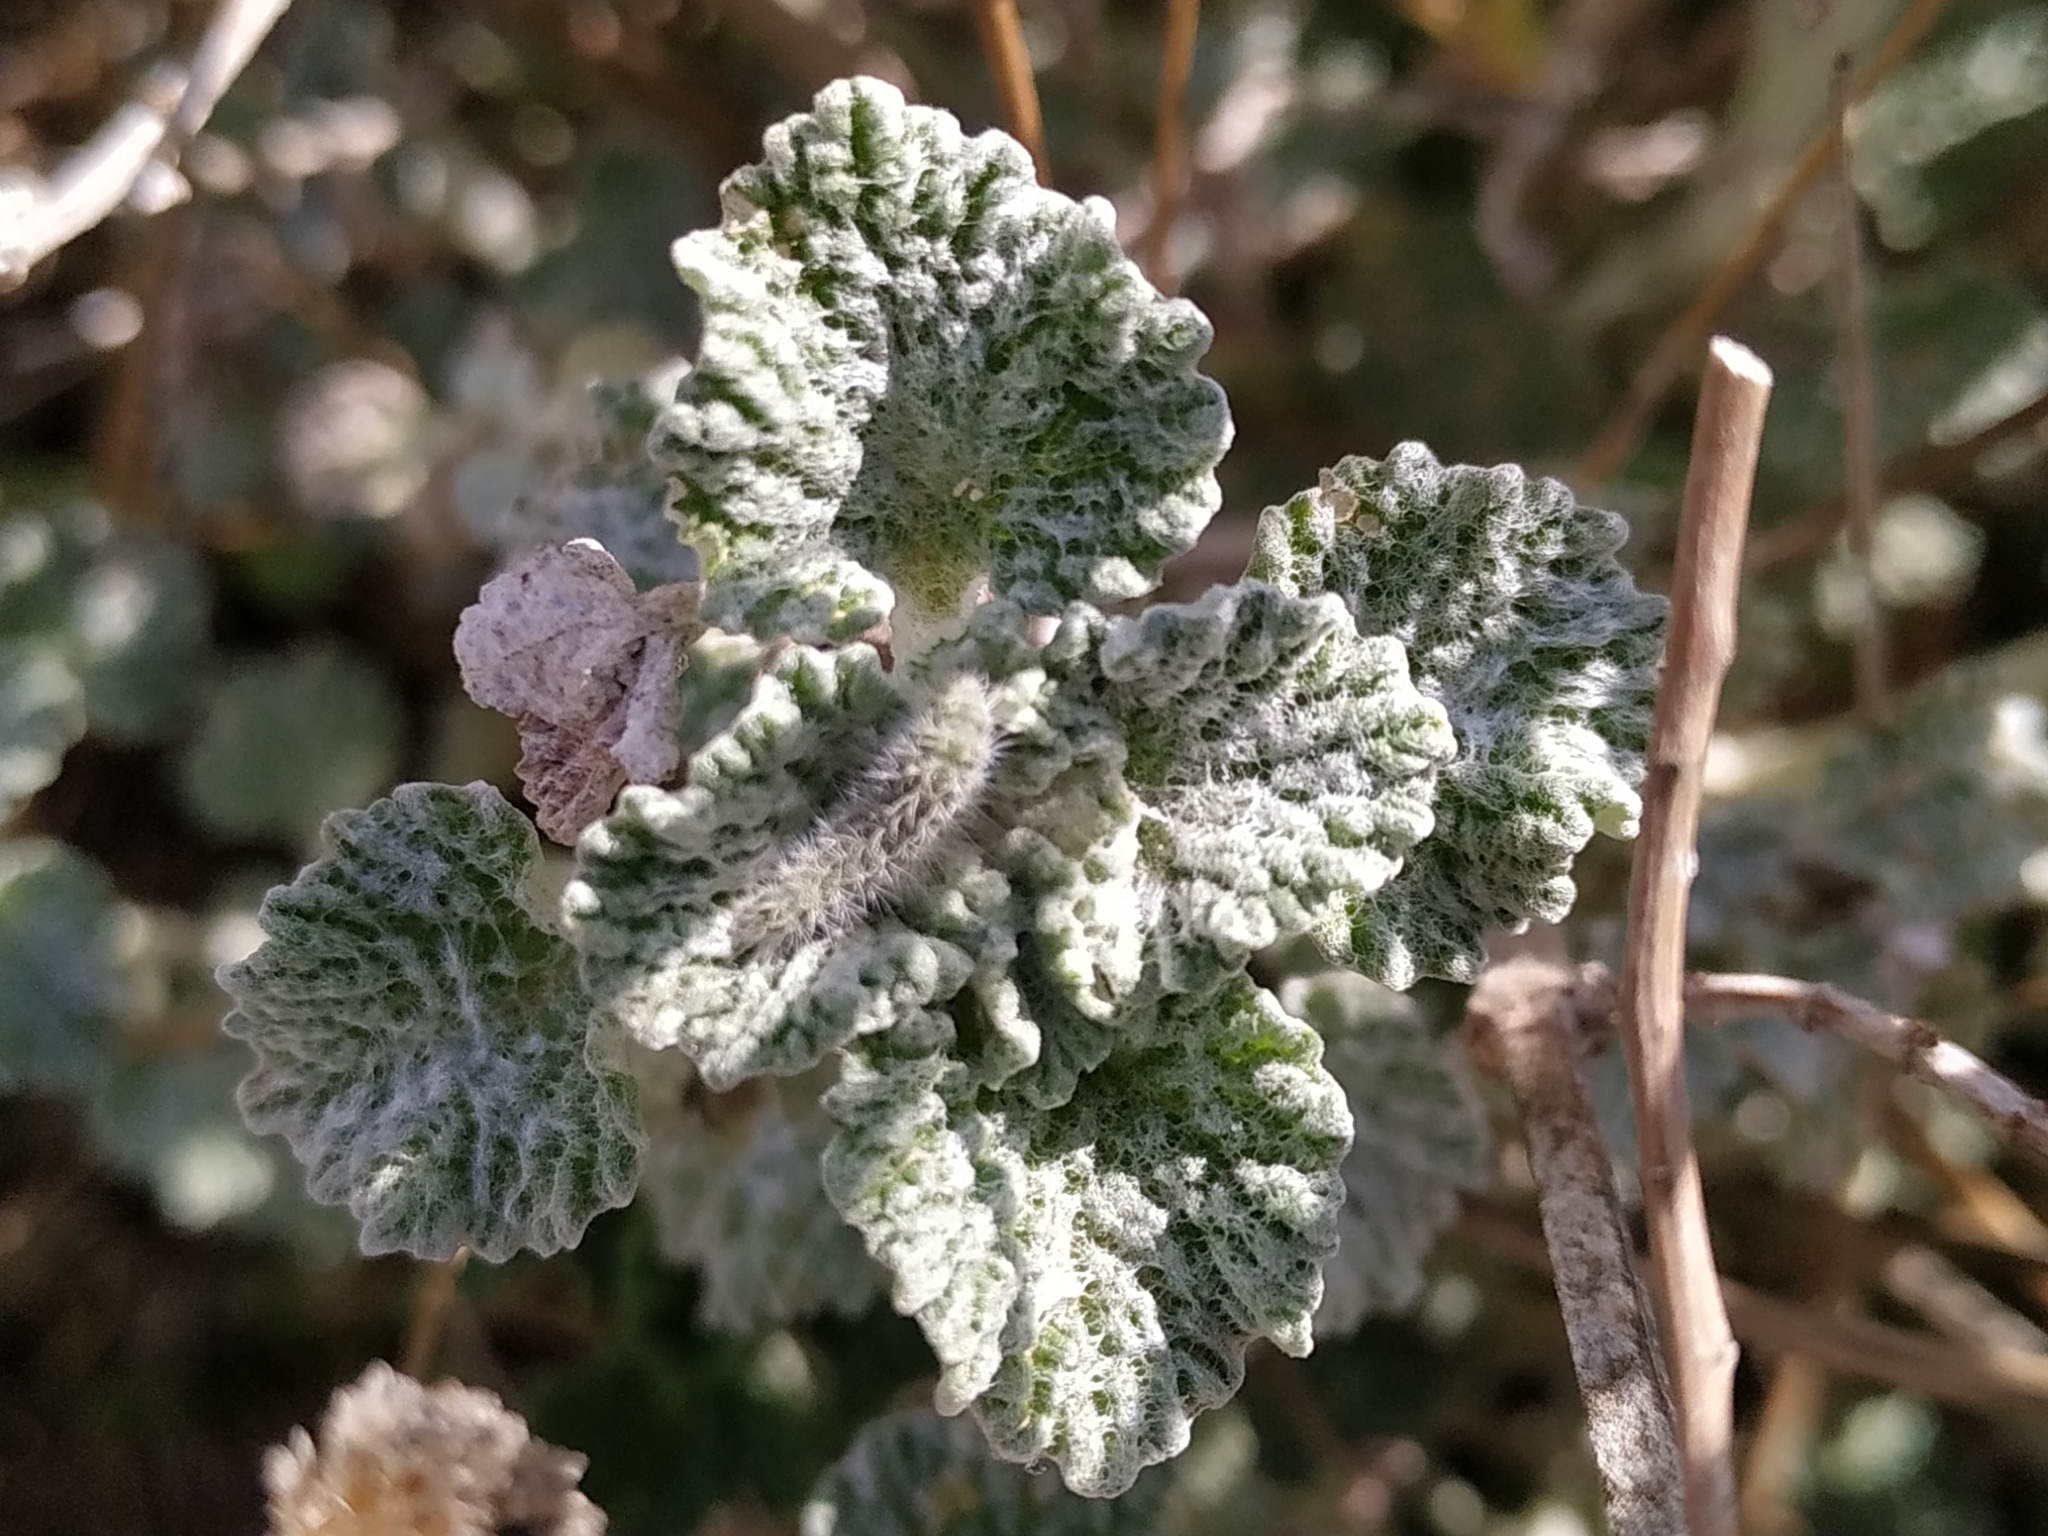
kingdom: Animalia
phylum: Arthropoda
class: Insecta
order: Lepidoptera
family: Pterophoridae
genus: Wheeleria
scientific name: Wheeleria spilodactylus
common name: Horehound plume
